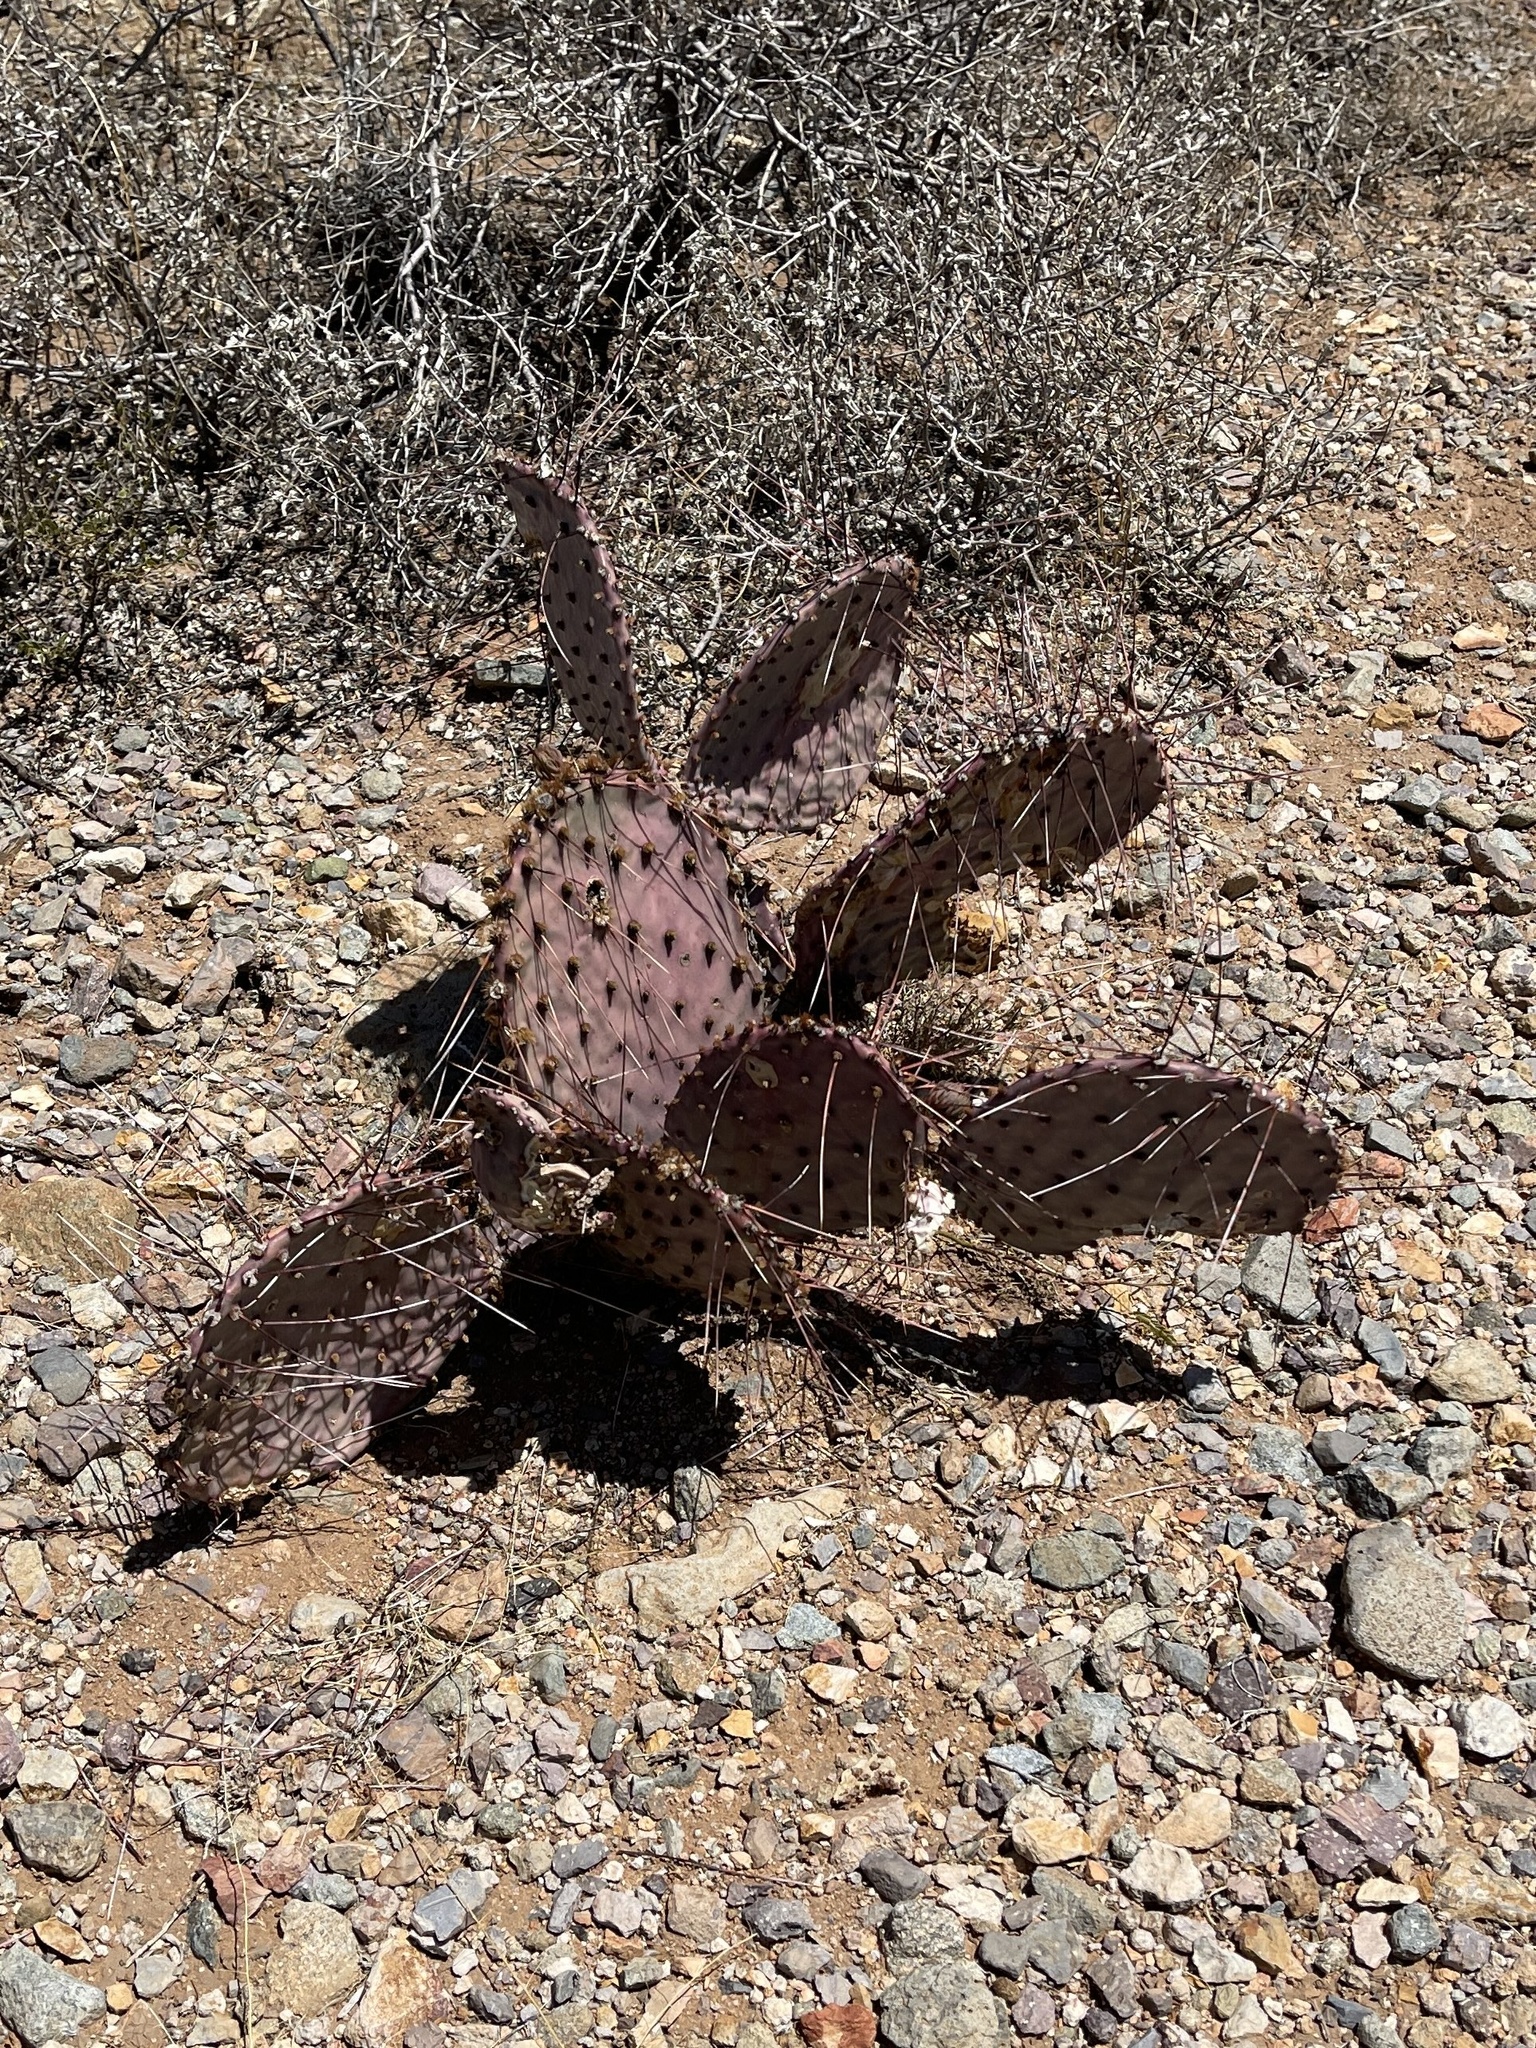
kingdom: Plantae
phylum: Tracheophyta
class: Magnoliopsida
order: Caryophyllales
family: Cactaceae
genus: Opuntia
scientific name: Opuntia macrocentra
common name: Purple prickly-pear
